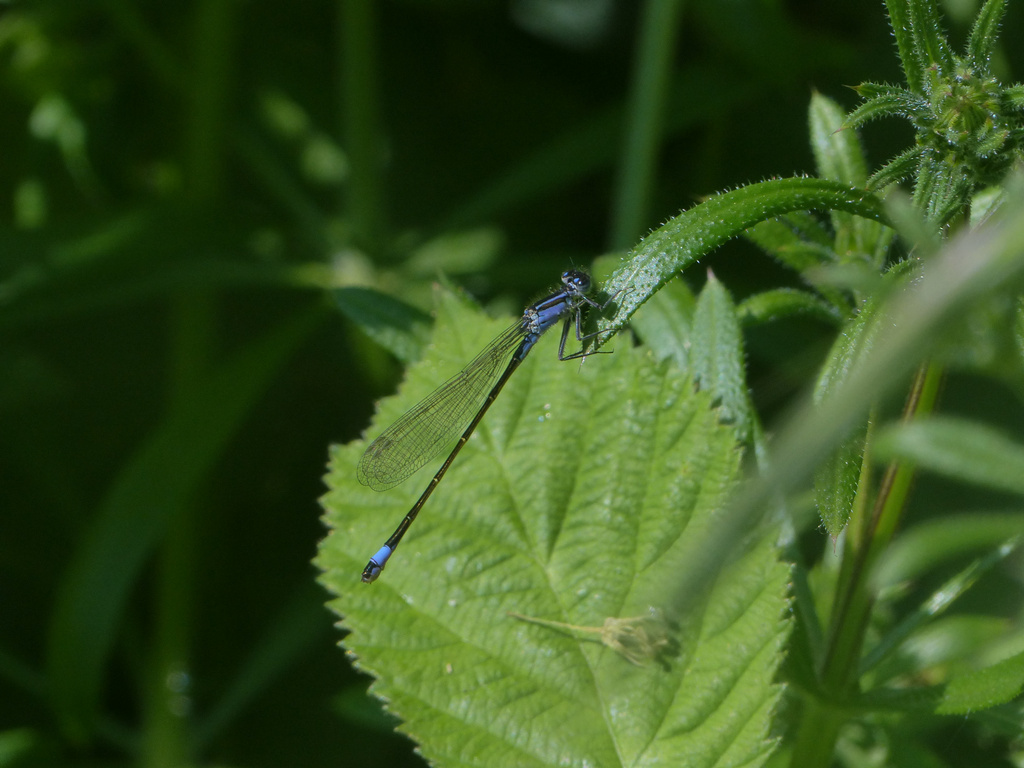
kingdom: Animalia
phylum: Arthropoda
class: Insecta
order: Odonata
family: Coenagrionidae
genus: Ischnura
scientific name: Ischnura elegans
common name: Blue-tailed damselfly
